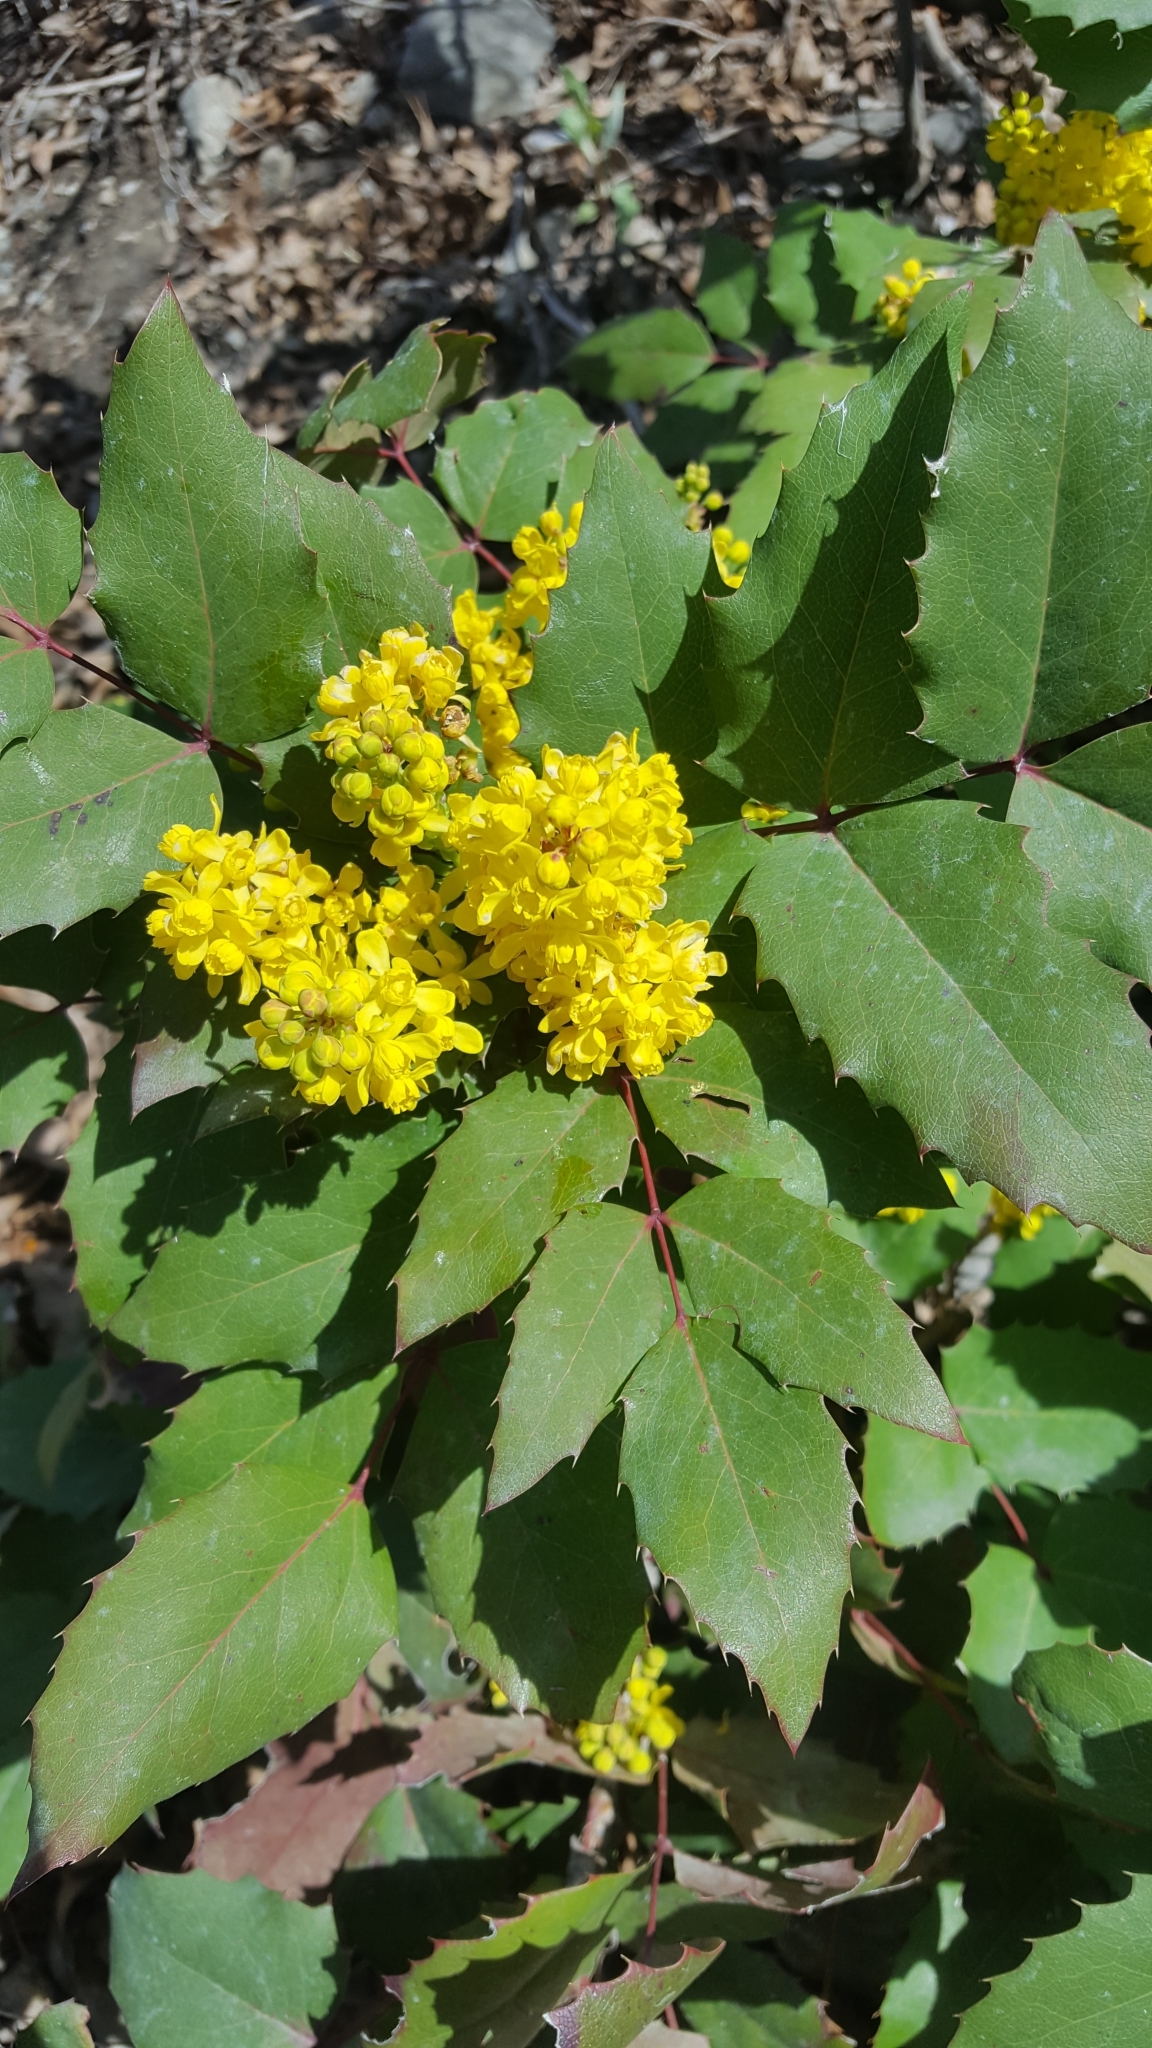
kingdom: Plantae
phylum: Tracheophyta
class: Magnoliopsida
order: Ranunculales
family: Berberidaceae
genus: Mahonia
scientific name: Mahonia repens
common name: Creeping oregon-grape
